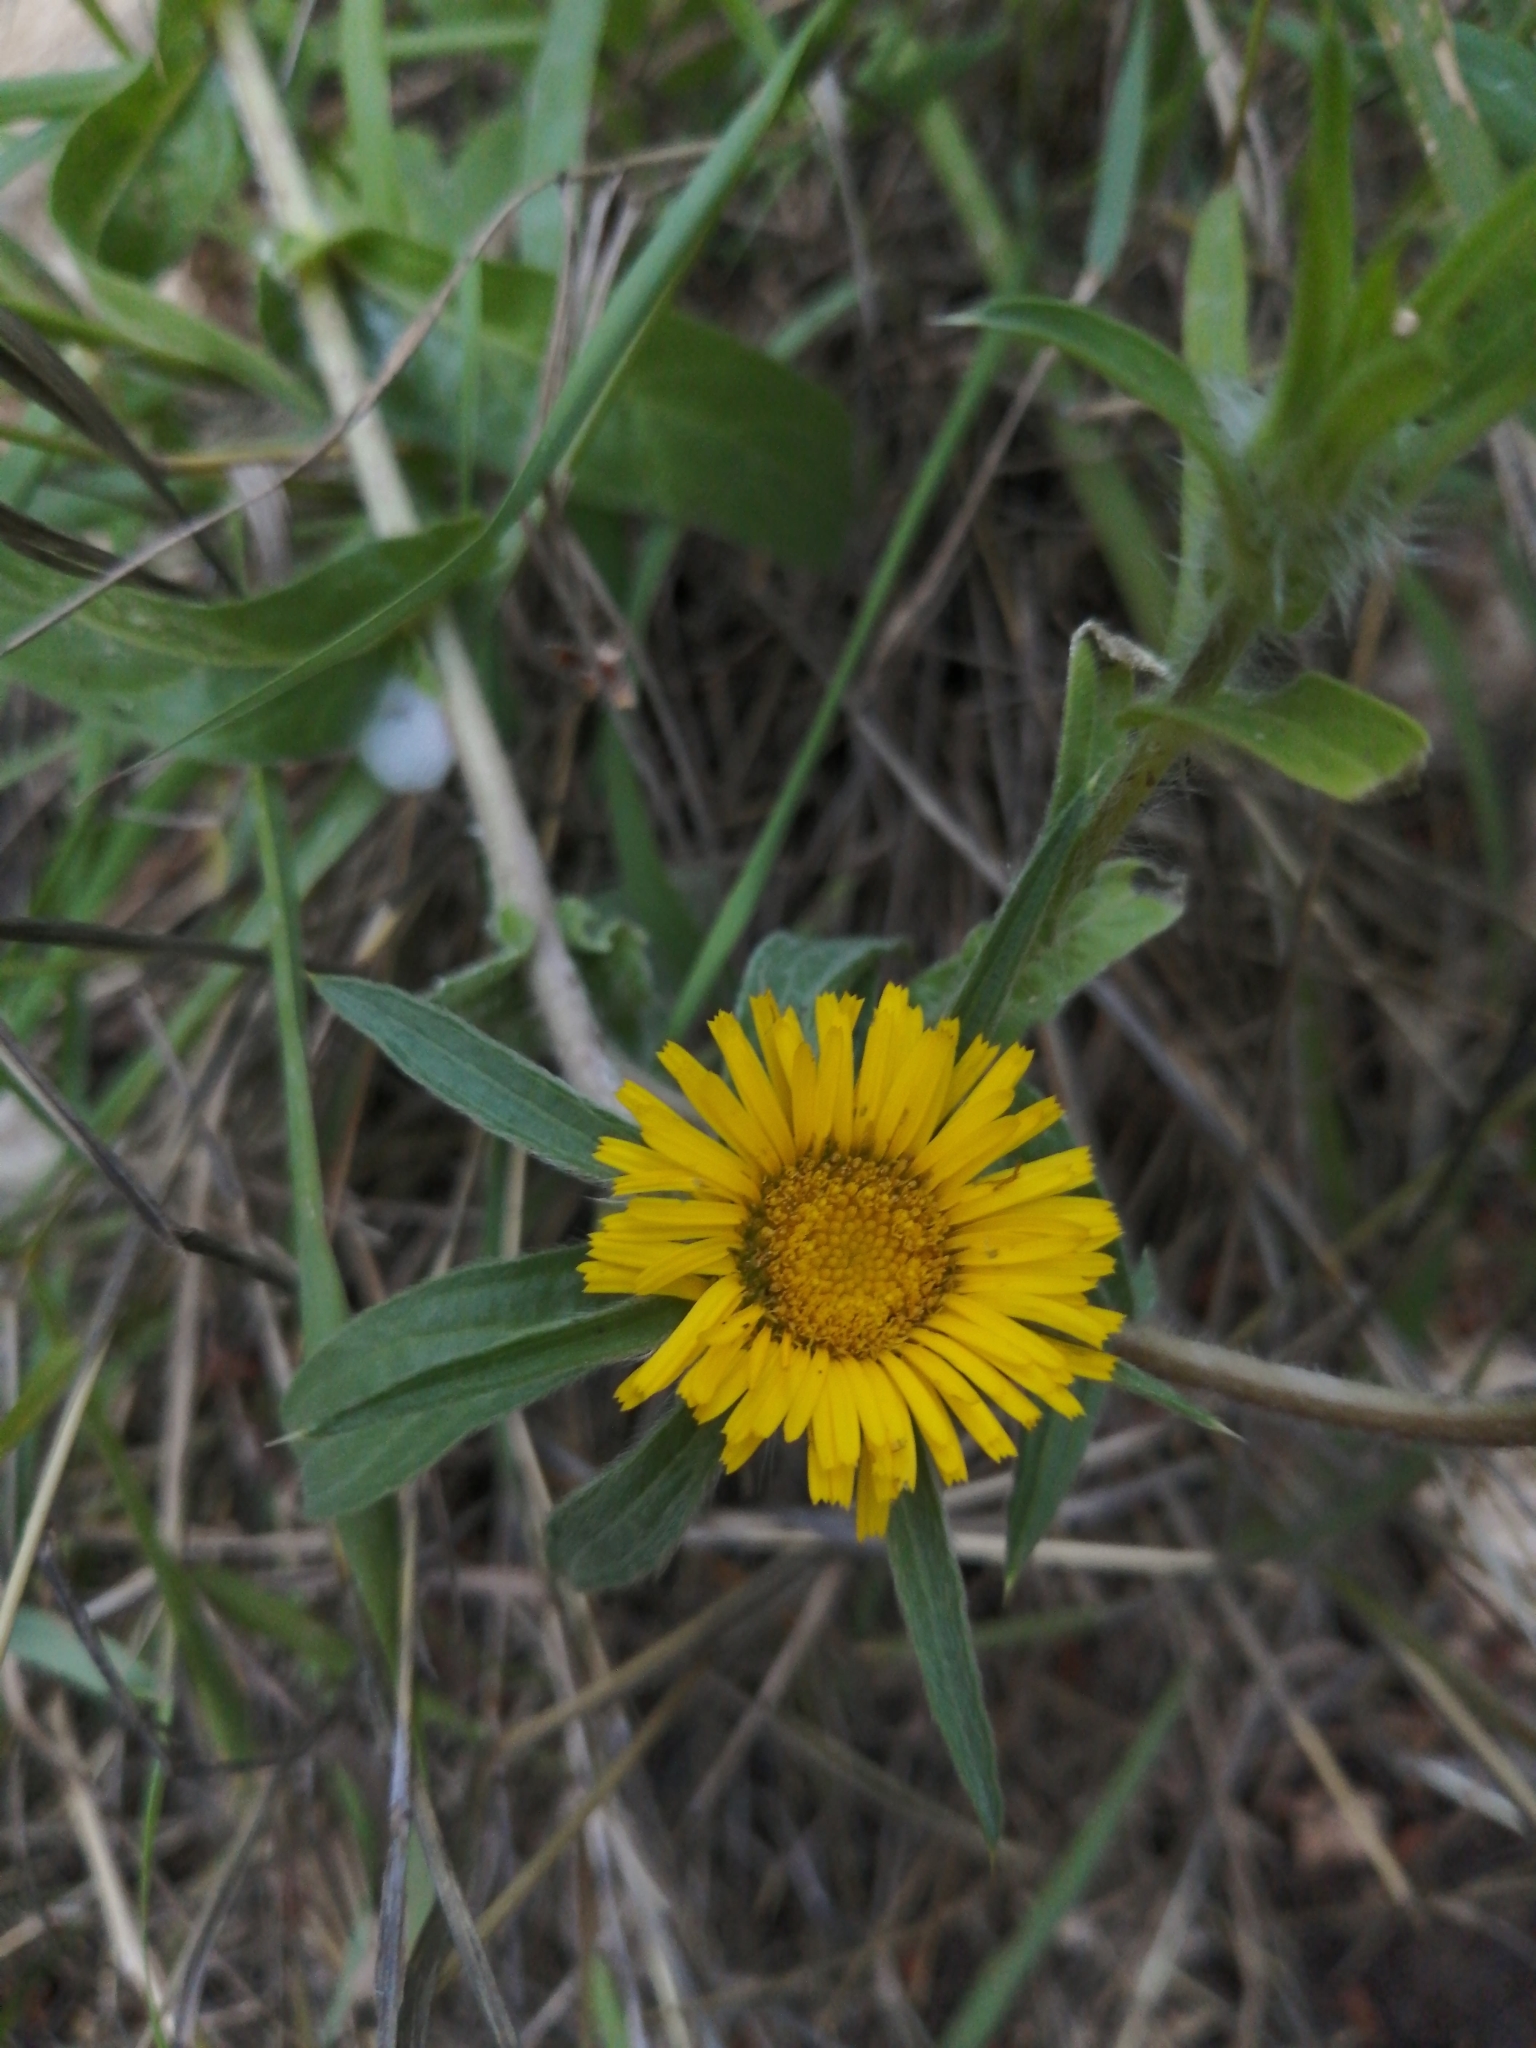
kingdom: Plantae
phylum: Tracheophyta
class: Magnoliopsida
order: Asterales
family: Asteraceae
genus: Pallenis
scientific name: Pallenis spinosa
